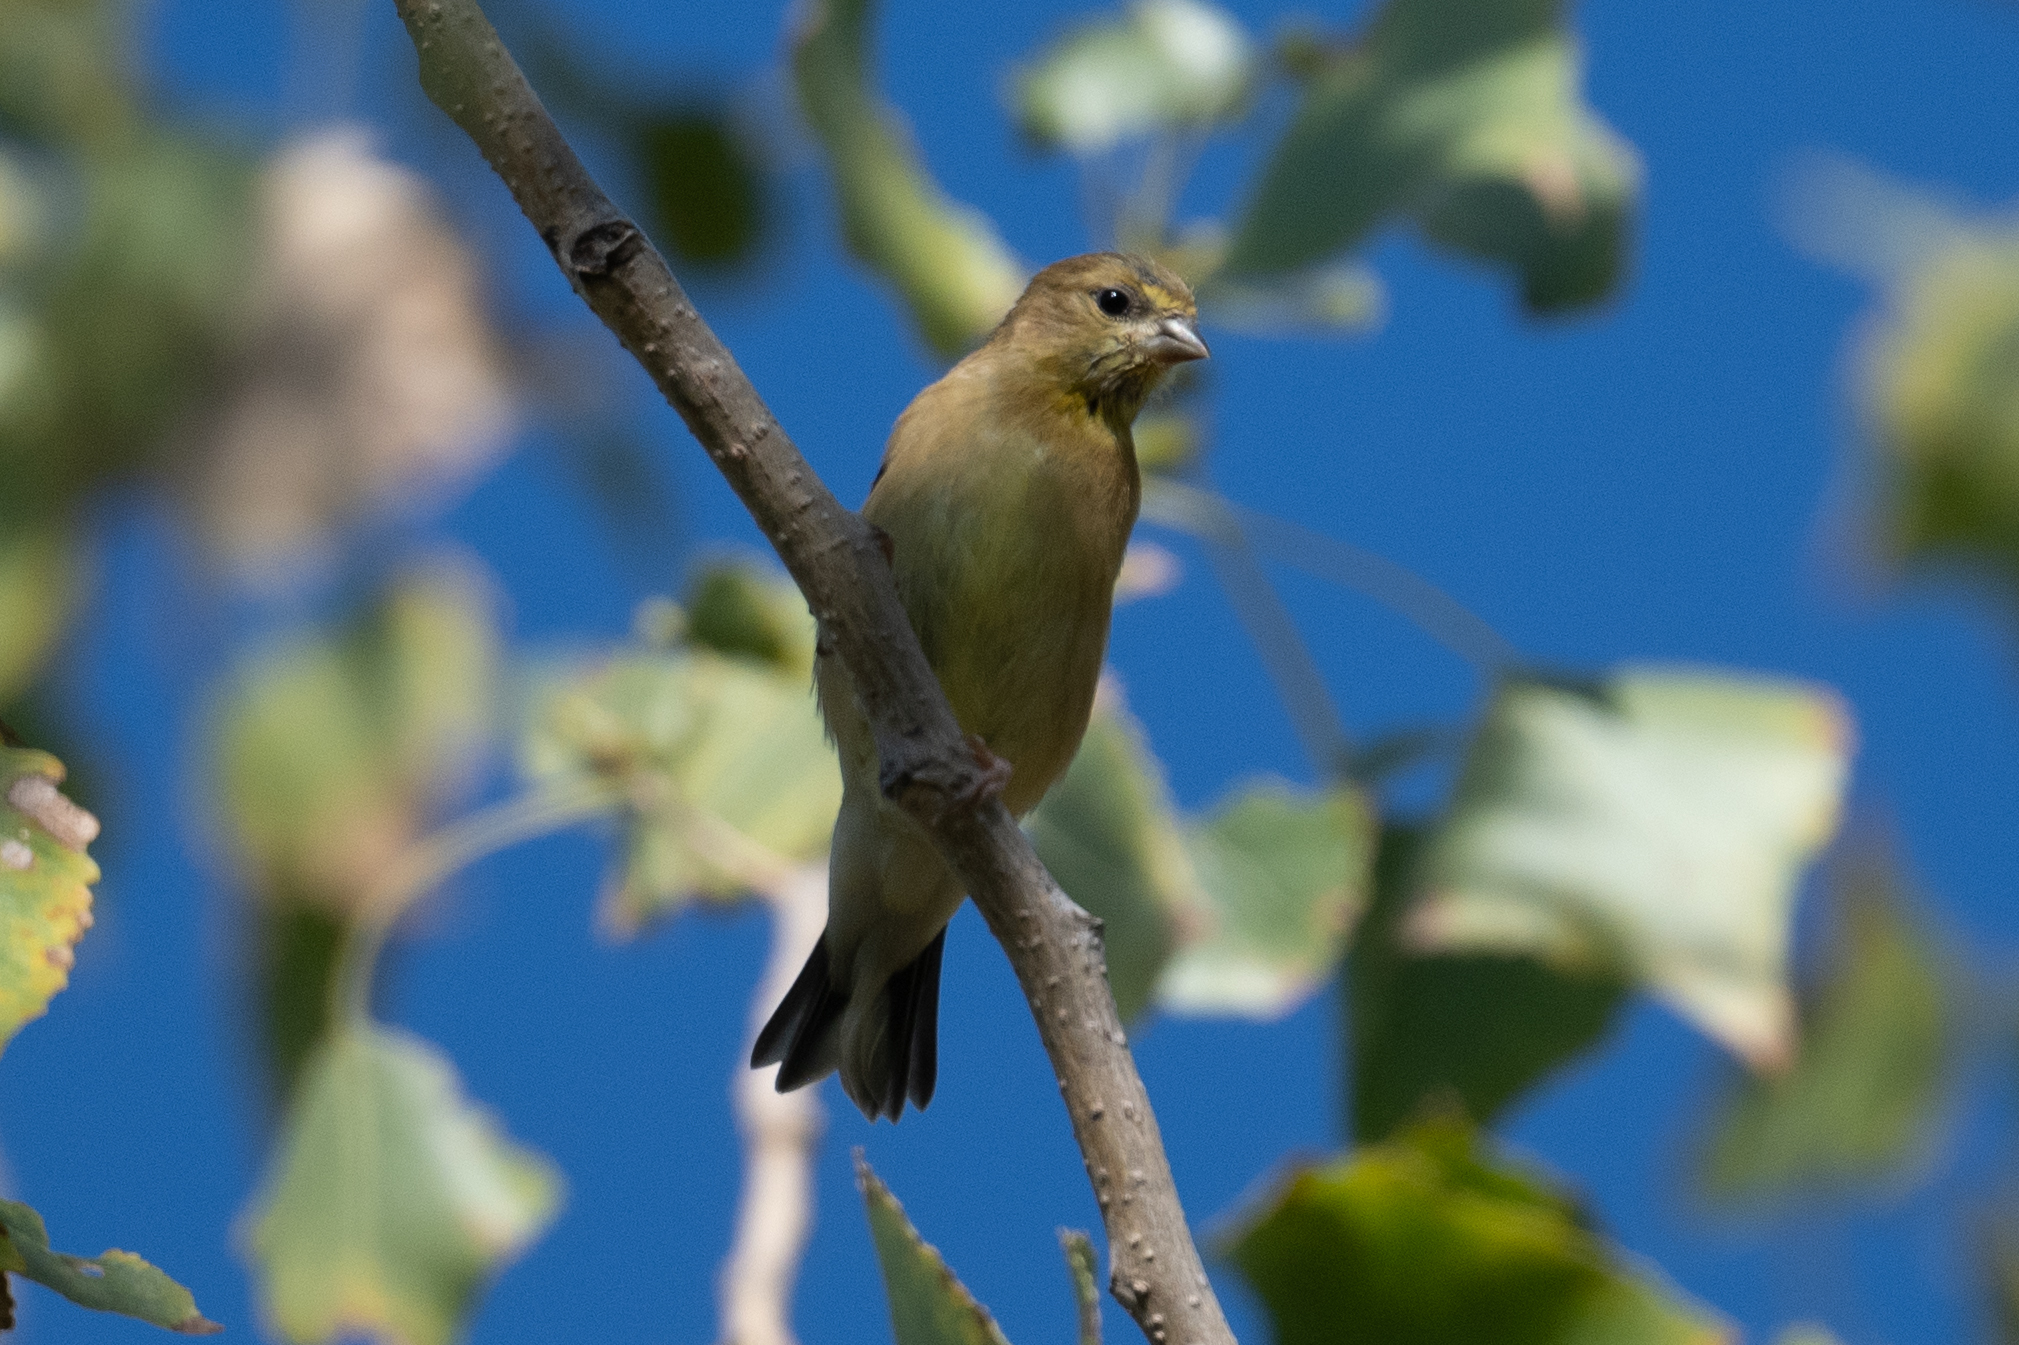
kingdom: Animalia
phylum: Chordata
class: Aves
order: Passeriformes
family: Fringillidae
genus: Spinus
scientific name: Spinus tristis
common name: American goldfinch
